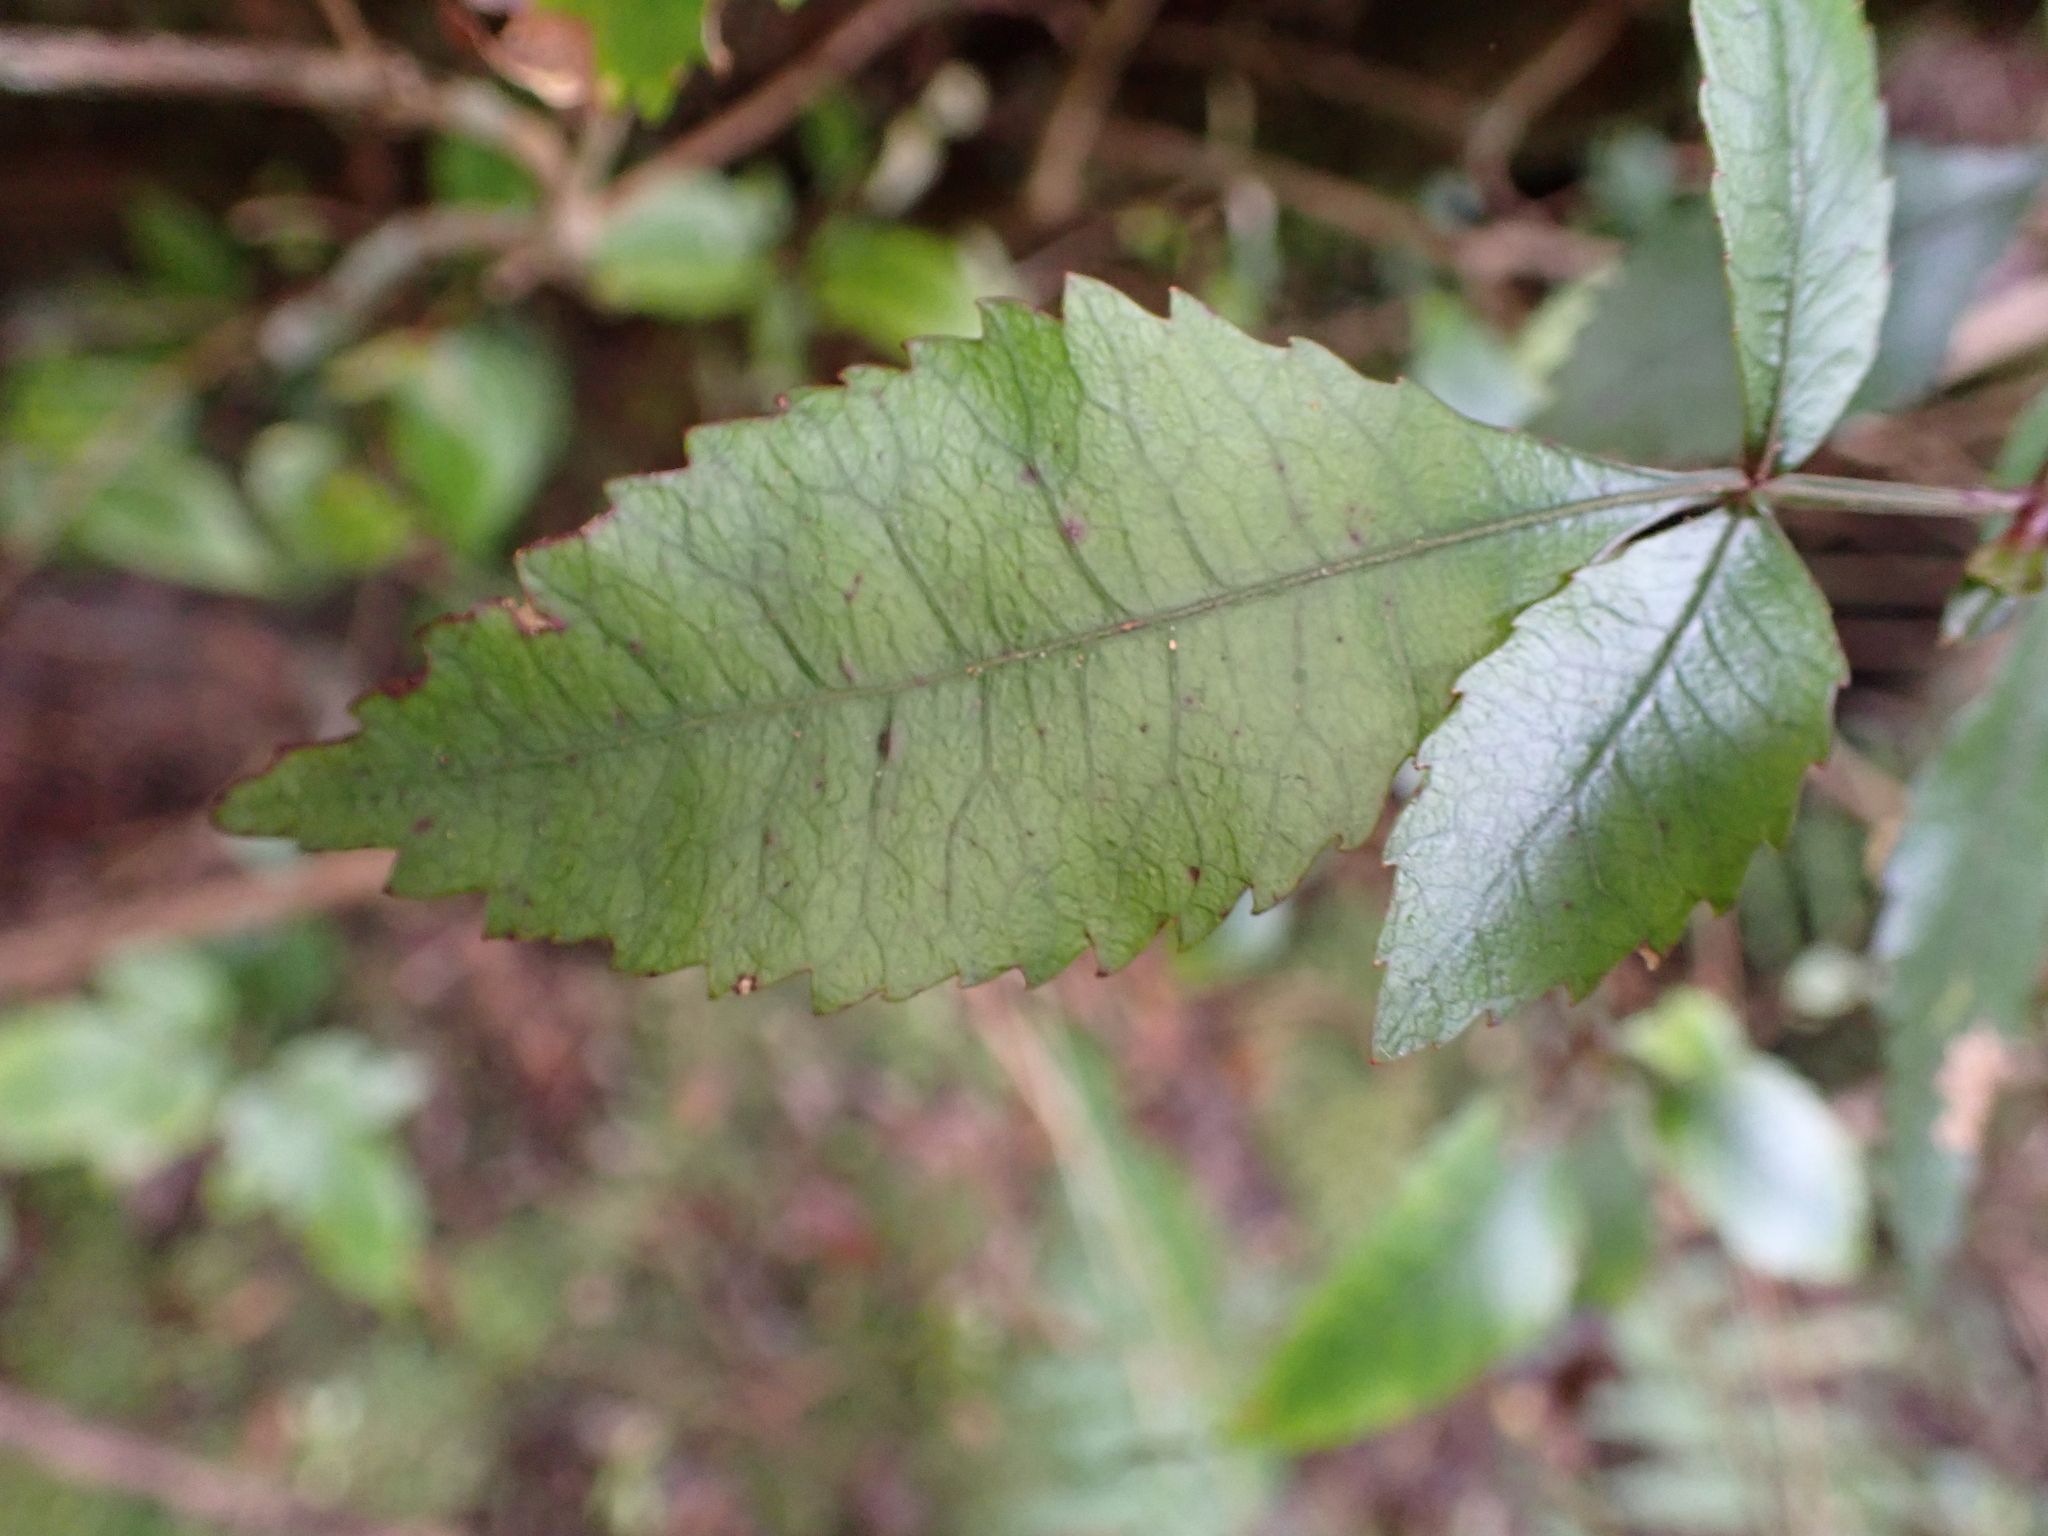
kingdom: Plantae
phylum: Tracheophyta
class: Magnoliopsida
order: Oxalidales
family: Cunoniaceae
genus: Pterophylla
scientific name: Pterophylla racemosa
